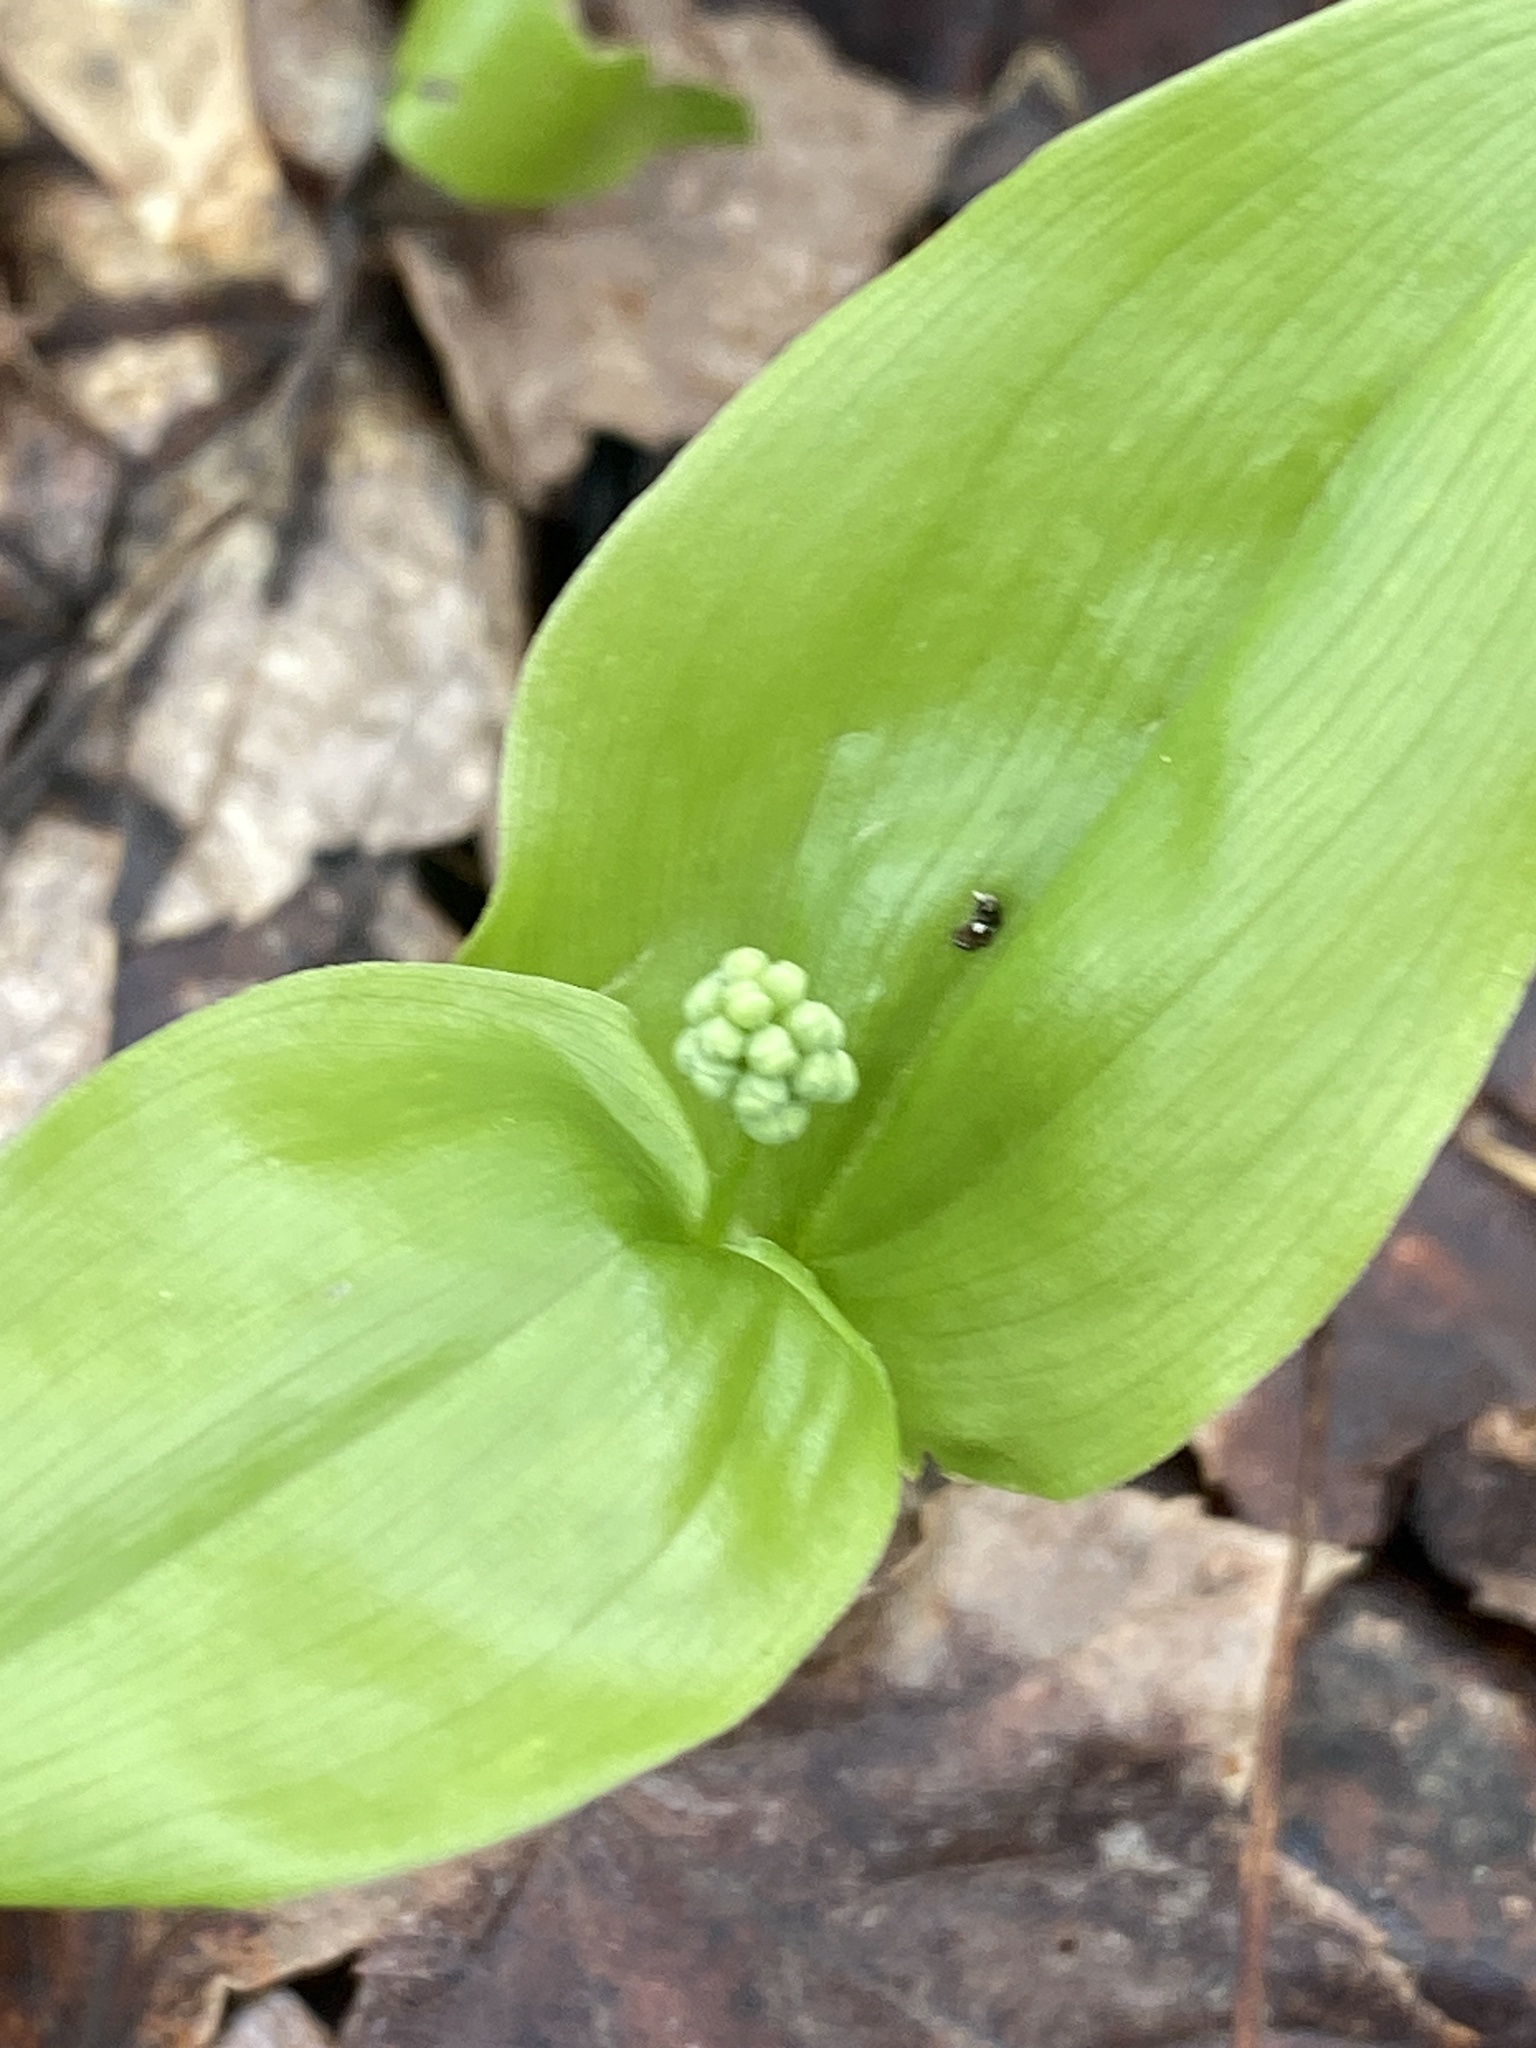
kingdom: Plantae
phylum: Tracheophyta
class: Liliopsida
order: Asparagales
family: Asparagaceae
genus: Maianthemum
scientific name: Maianthemum canadense
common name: False lily-of-the-valley
